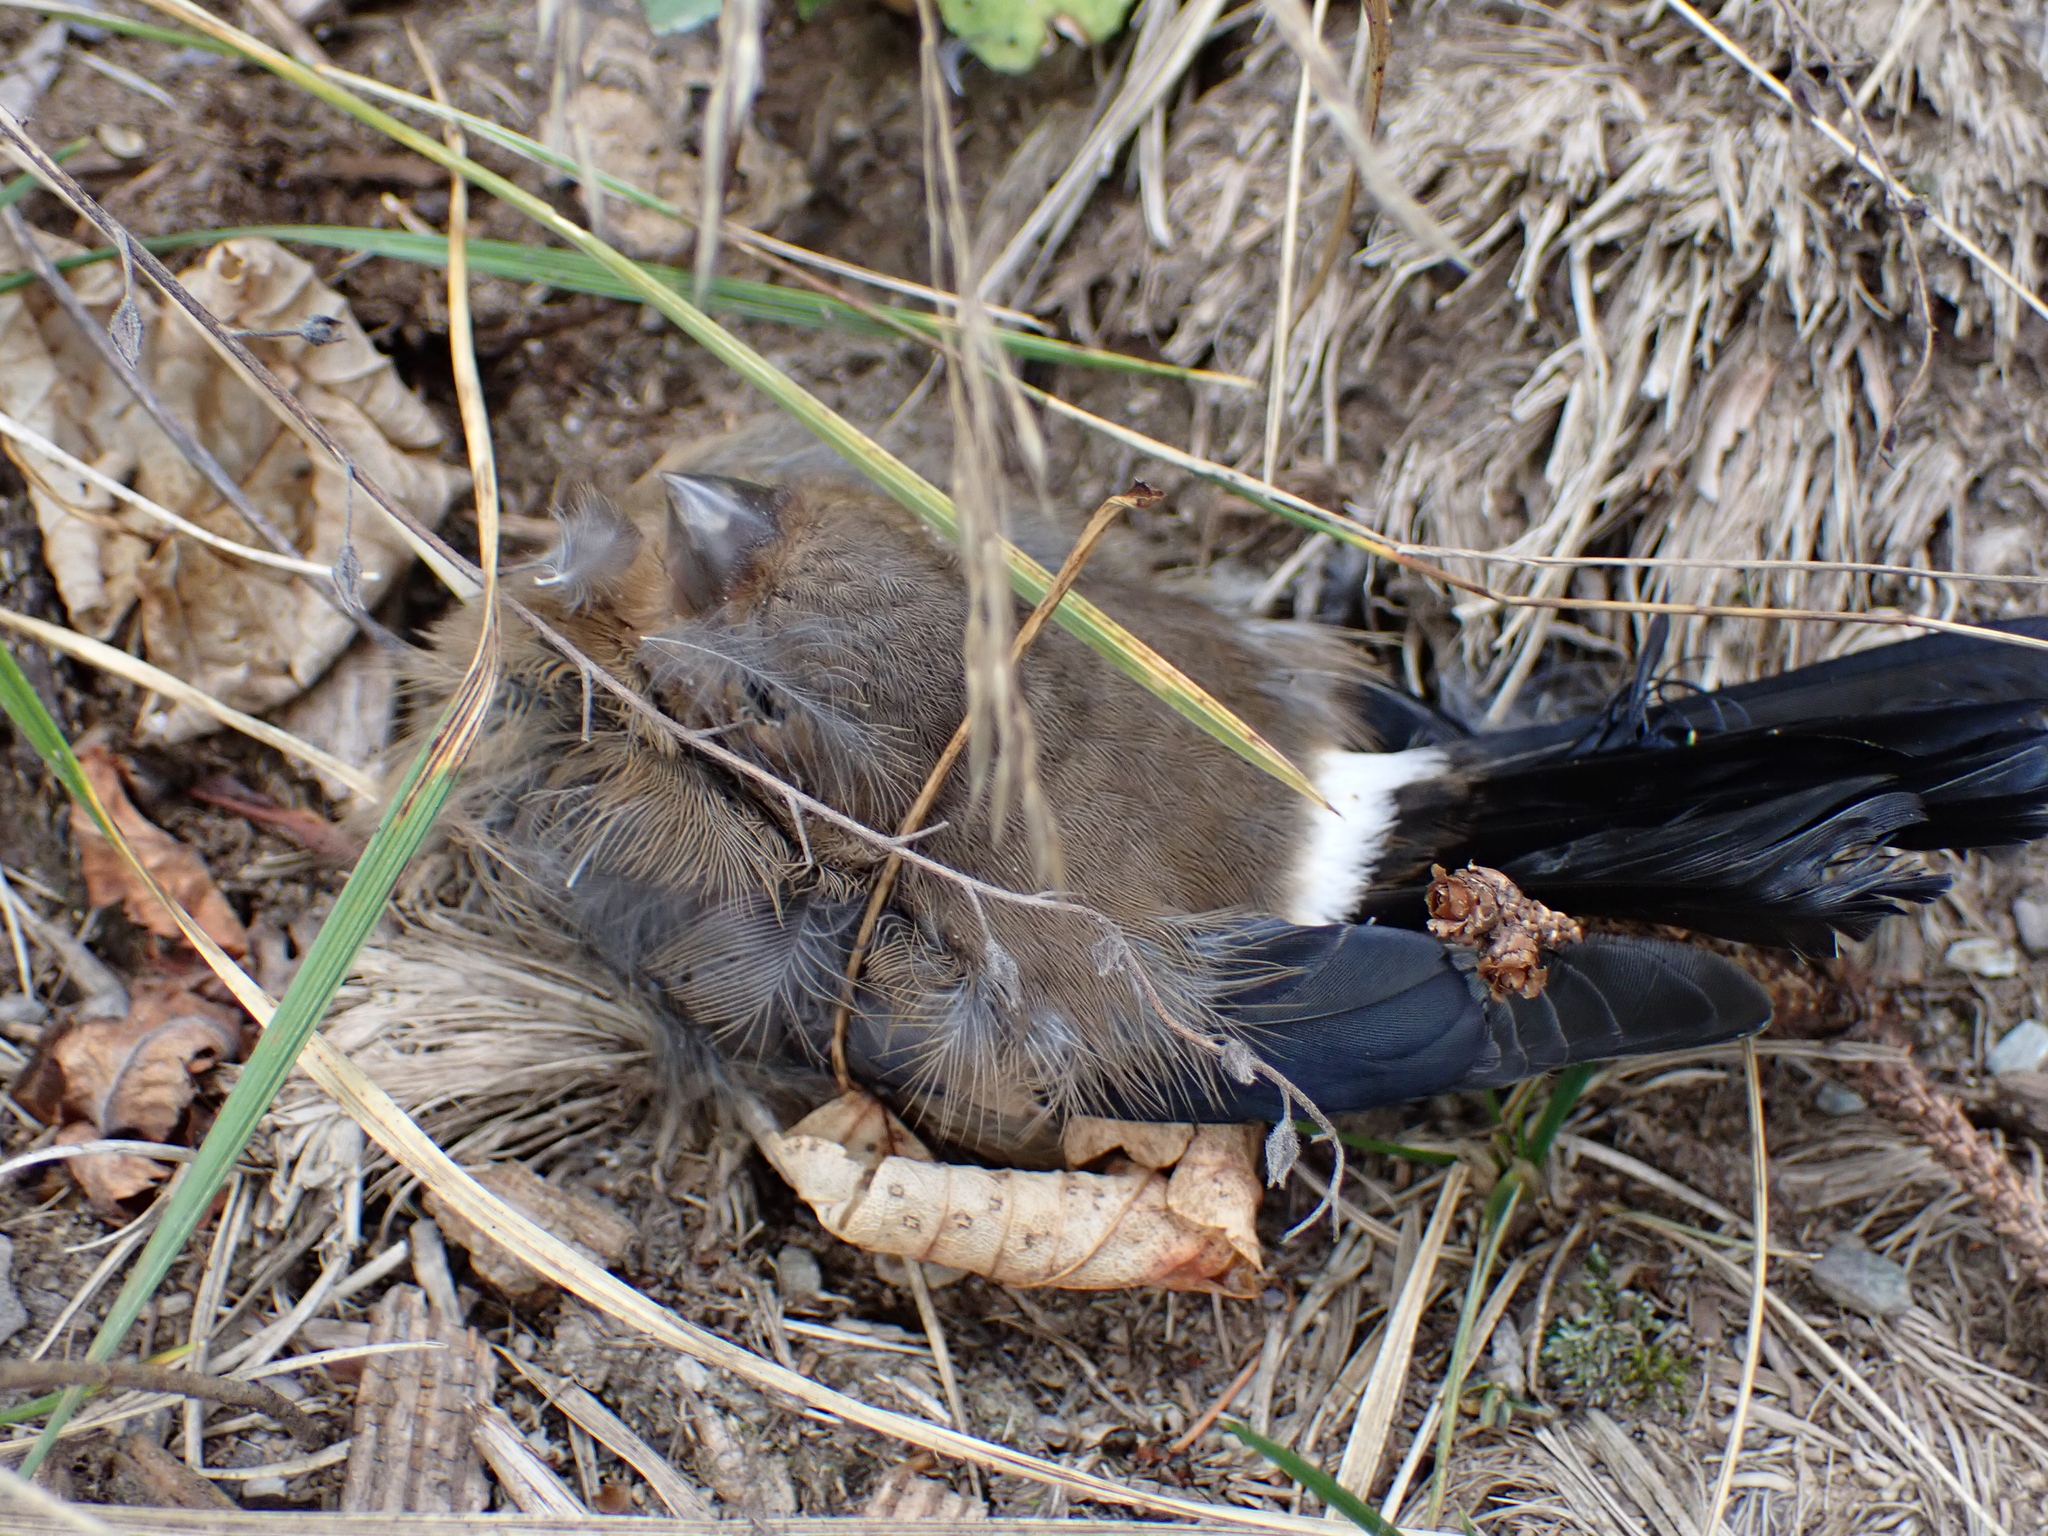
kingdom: Animalia
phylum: Chordata
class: Aves
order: Passeriformes
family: Fringillidae
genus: Pyrrhula
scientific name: Pyrrhula pyrrhula
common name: Eurasian bullfinch
